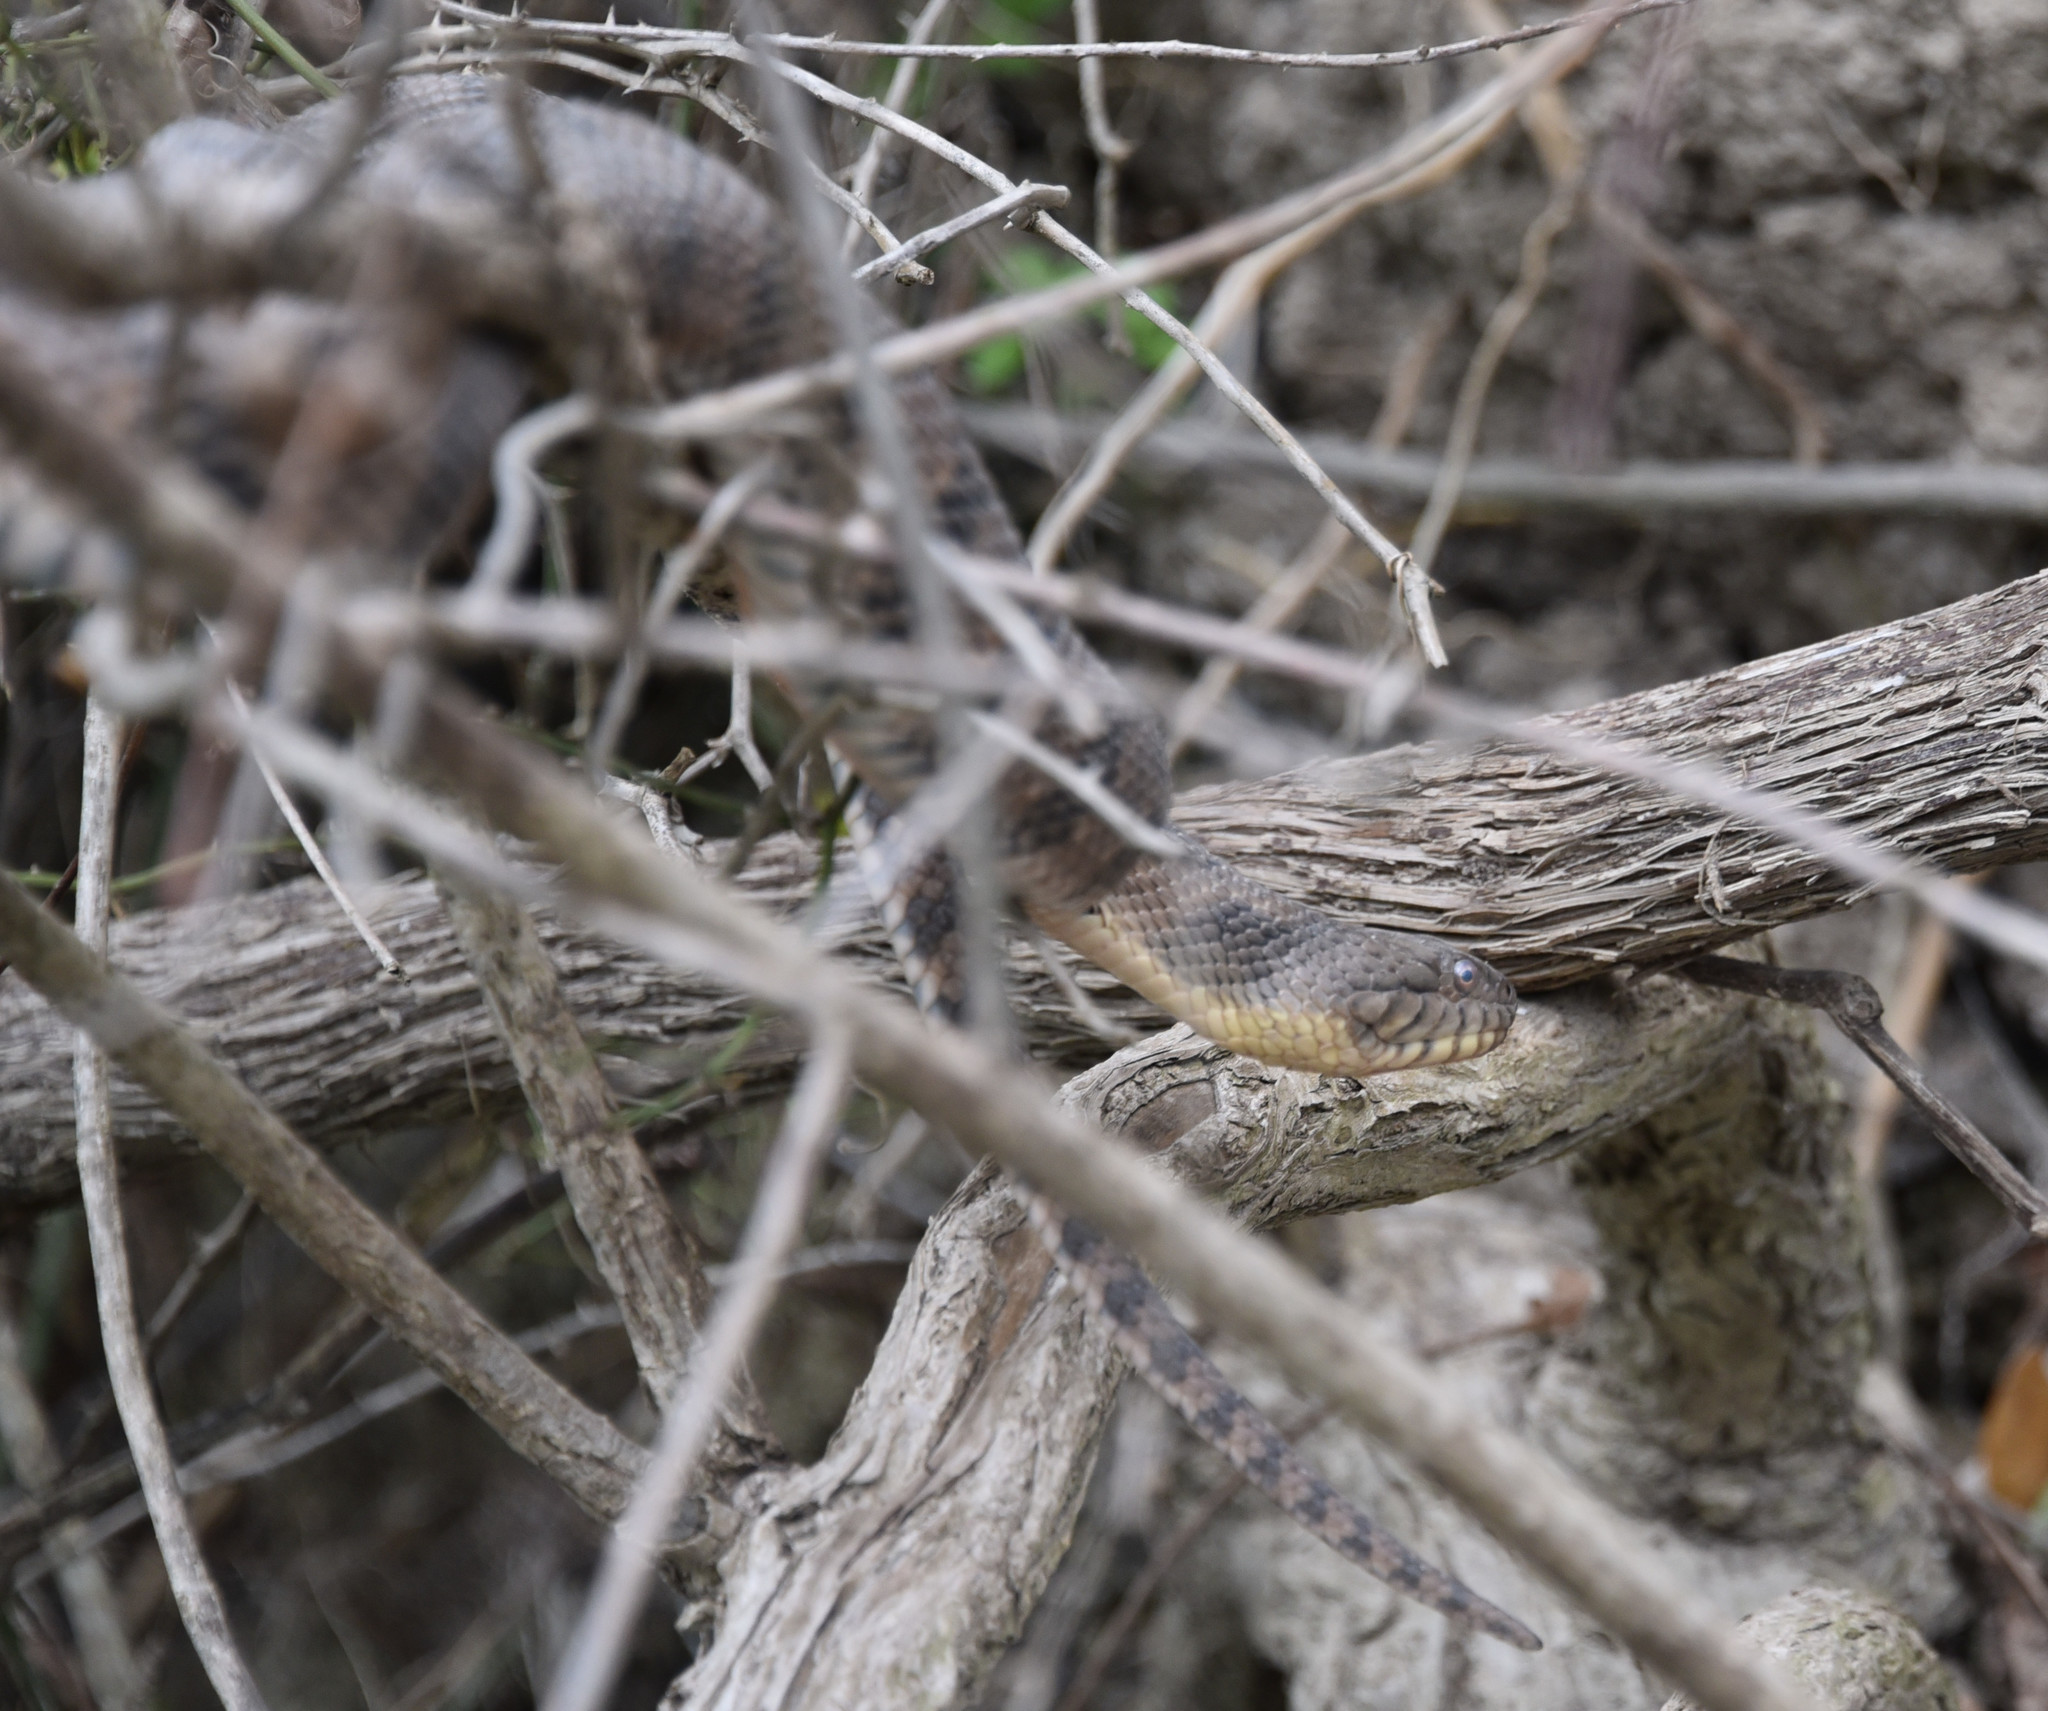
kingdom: Animalia
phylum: Chordata
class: Squamata
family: Colubridae
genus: Nerodia
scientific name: Nerodia rhombifer
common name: Diamondback water snake
